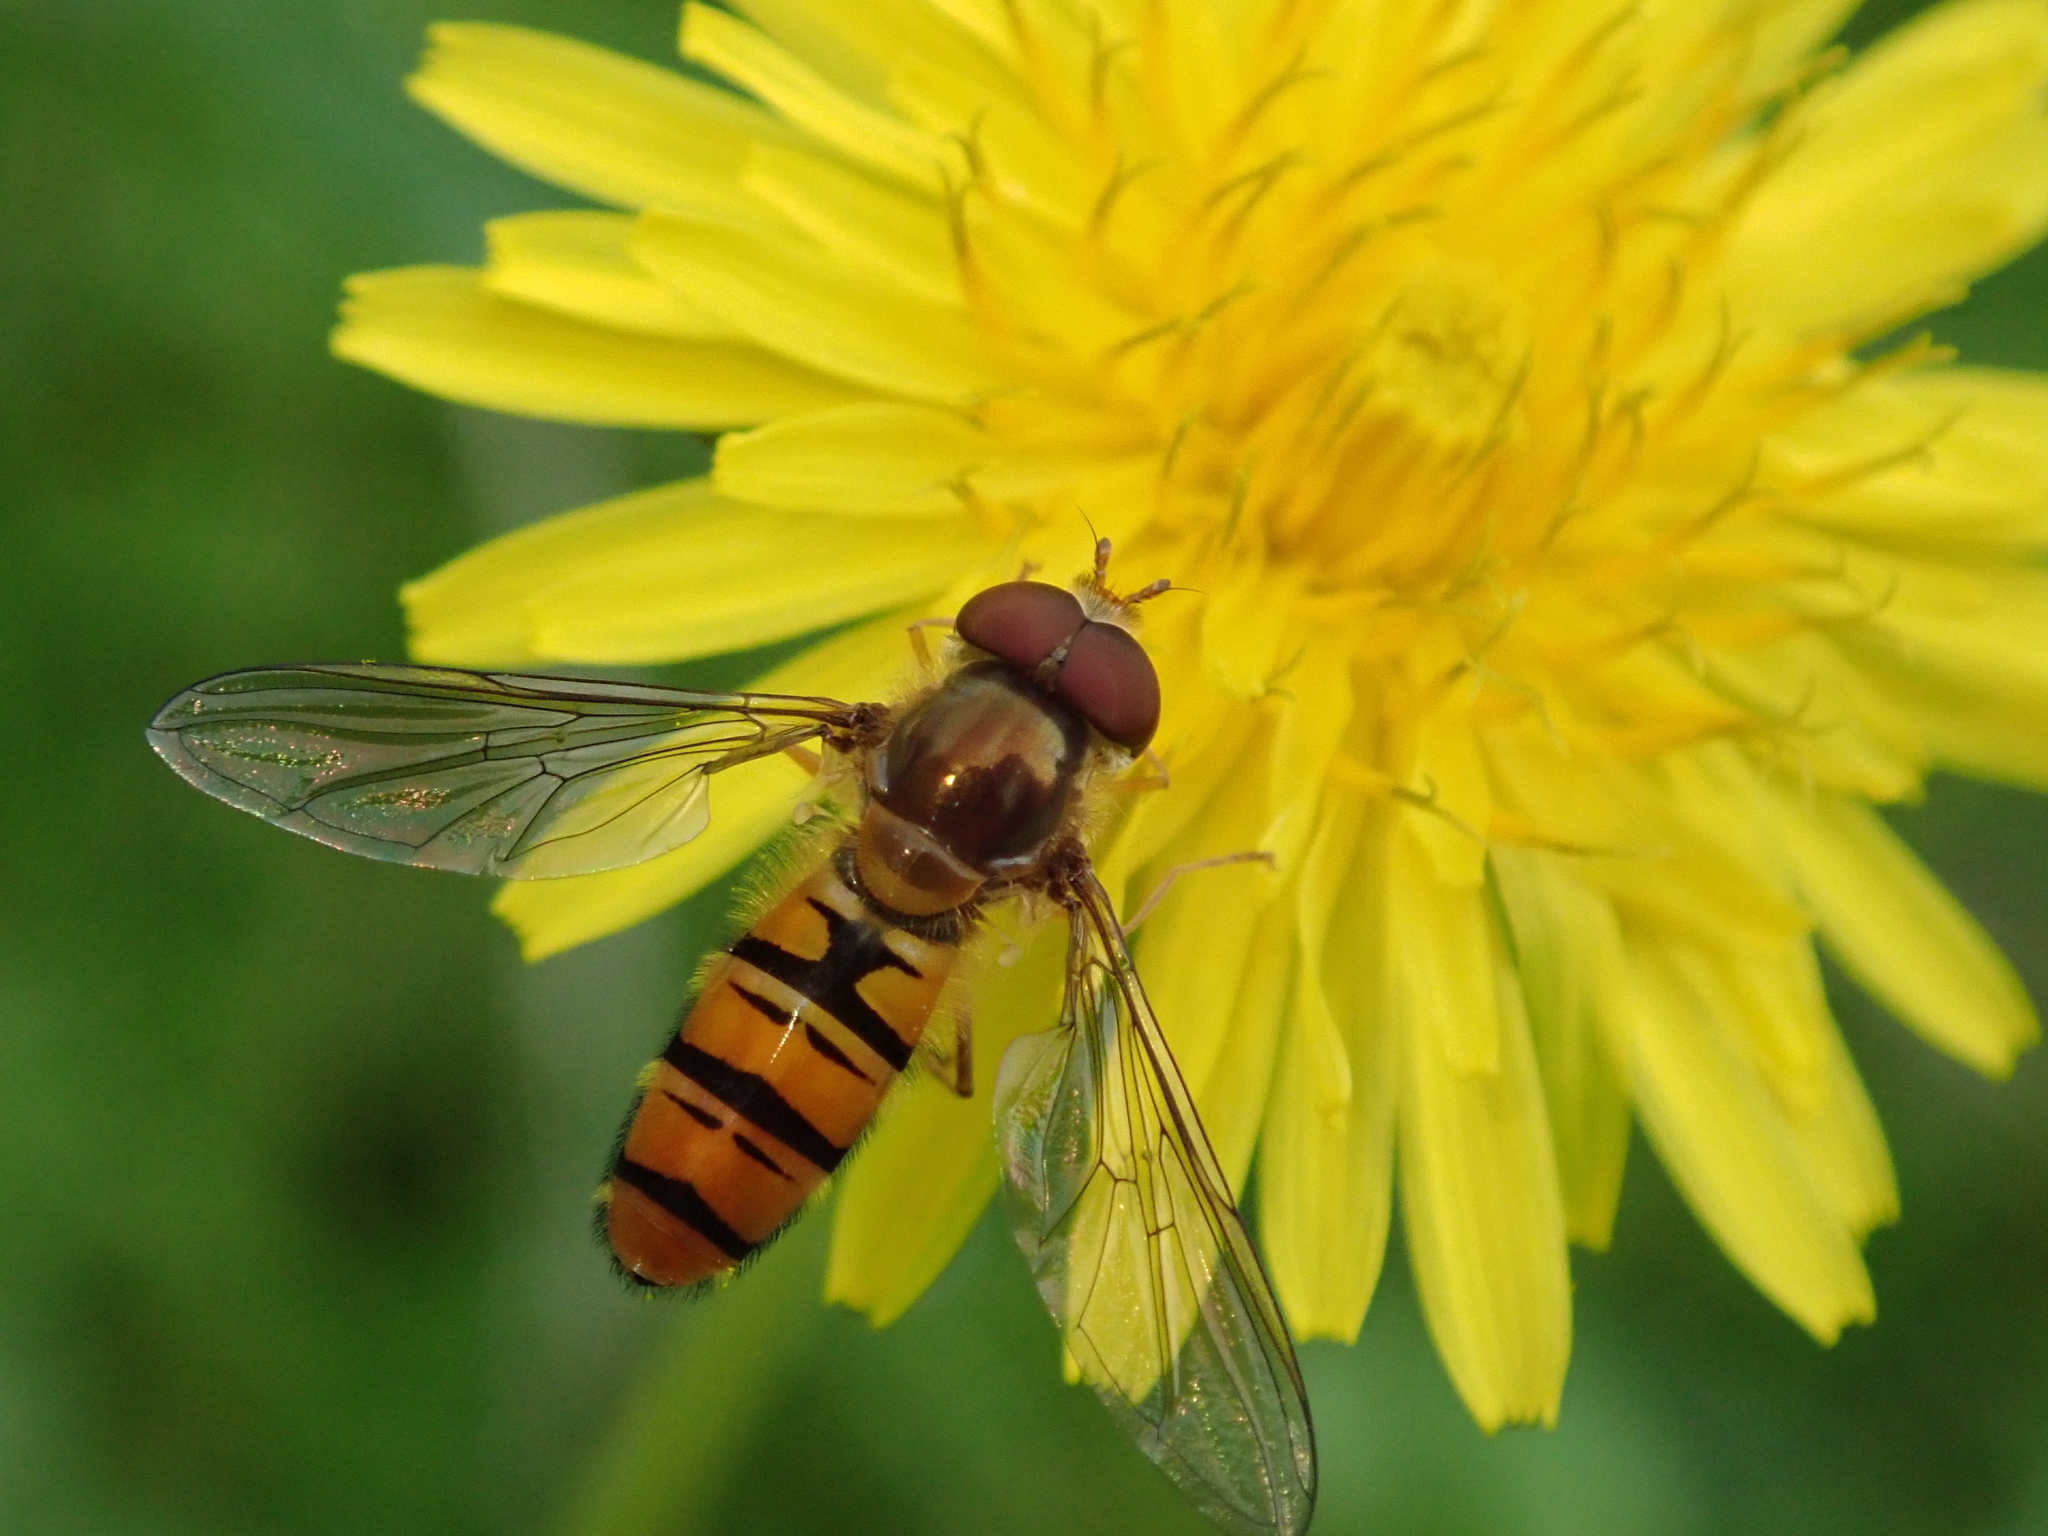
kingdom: Animalia
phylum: Arthropoda
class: Insecta
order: Diptera
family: Syrphidae
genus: Episyrphus
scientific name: Episyrphus balteatus
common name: Marmalade hoverfly
